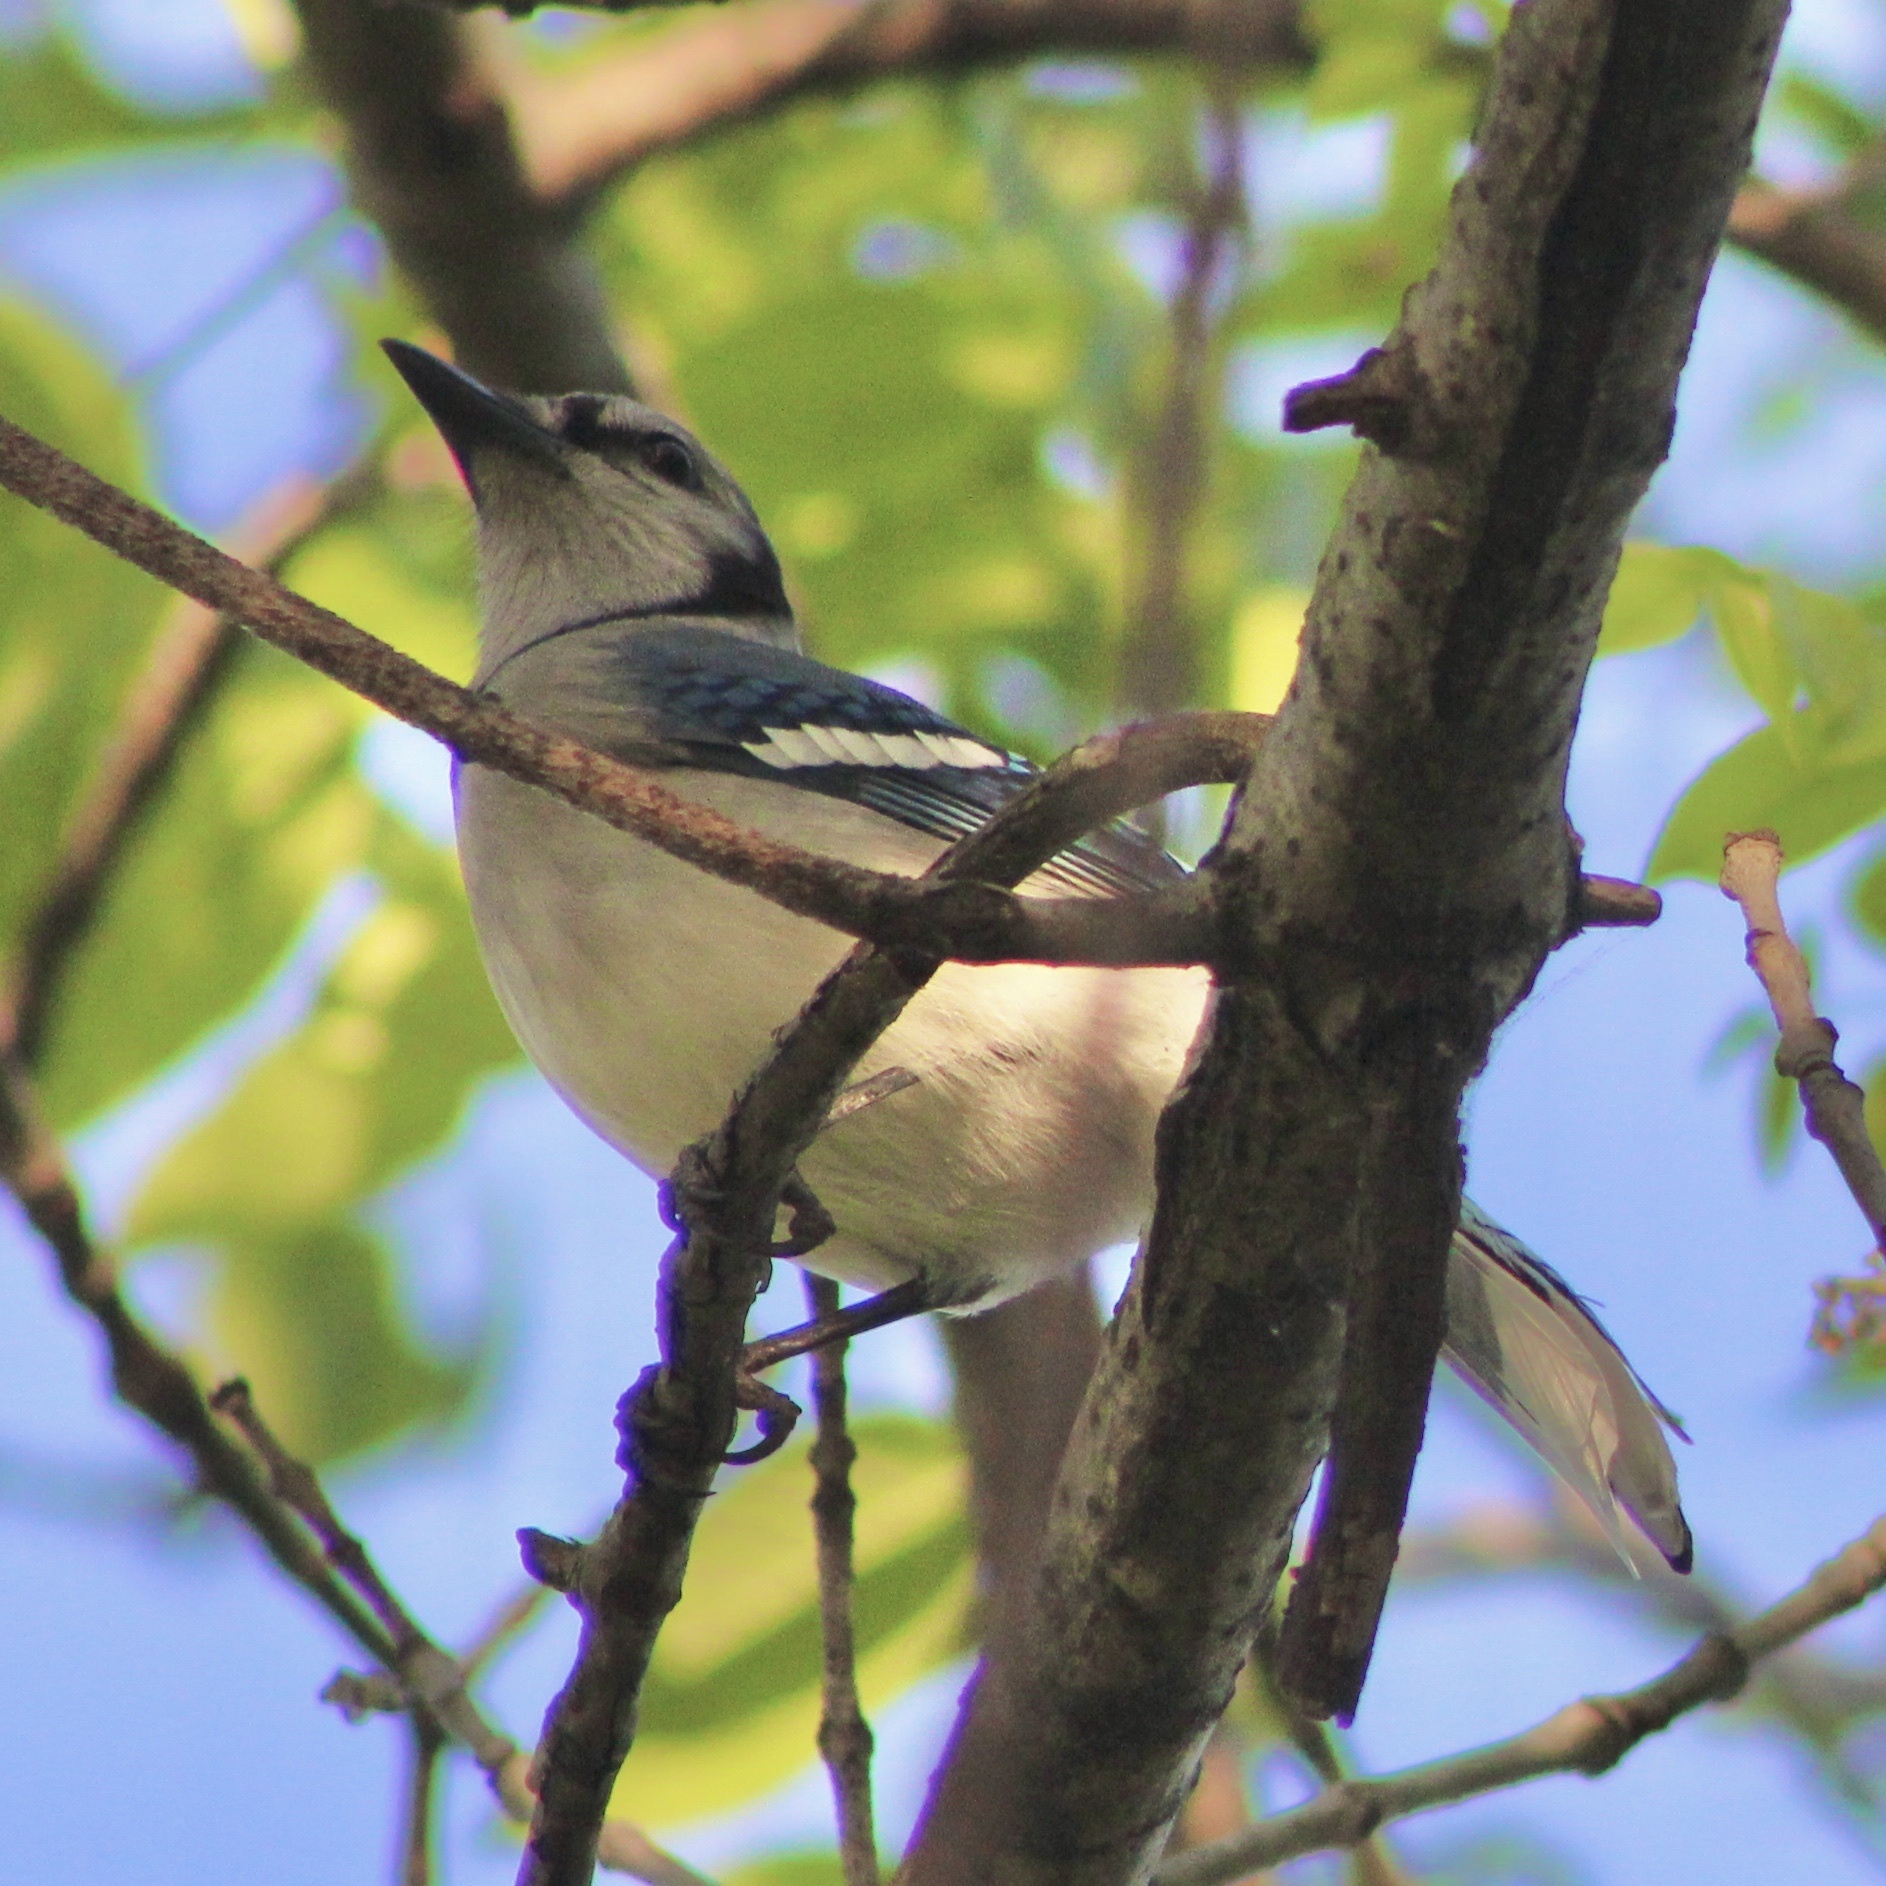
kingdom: Animalia
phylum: Chordata
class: Aves
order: Passeriformes
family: Corvidae
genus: Cyanocitta
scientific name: Cyanocitta cristata
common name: Blue jay
